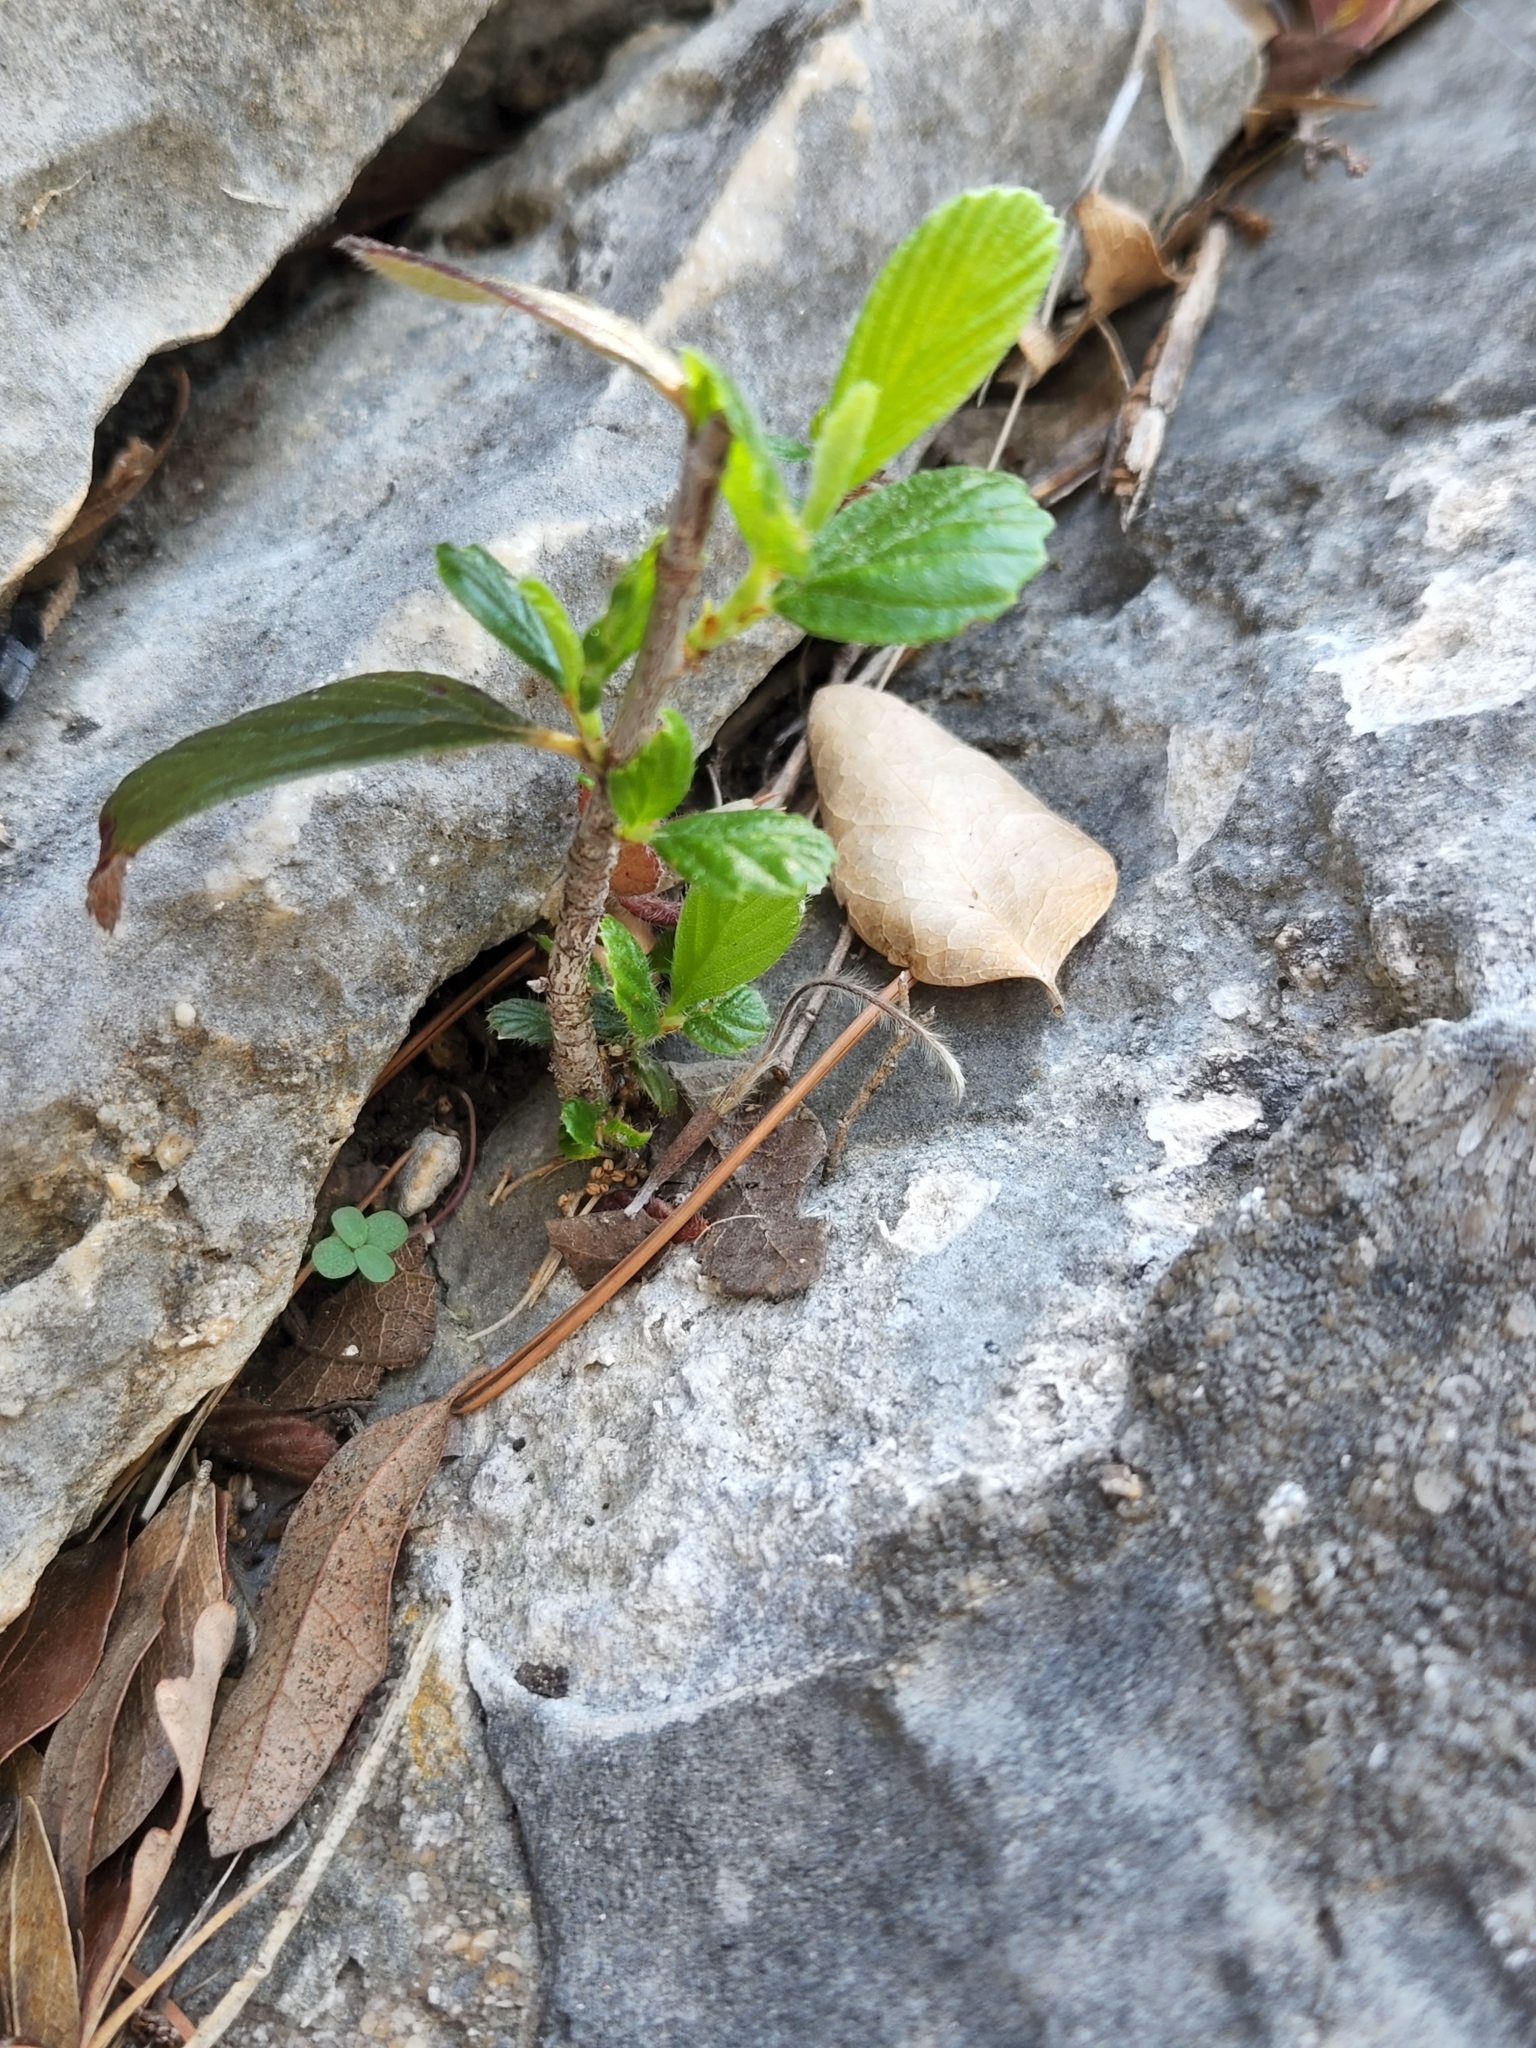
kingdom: Plantae
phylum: Tracheophyta
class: Magnoliopsida
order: Rosales
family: Rosaceae
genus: Cercocarpus
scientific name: Cercocarpus montanus
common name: Alder-leaf cercocarpus
